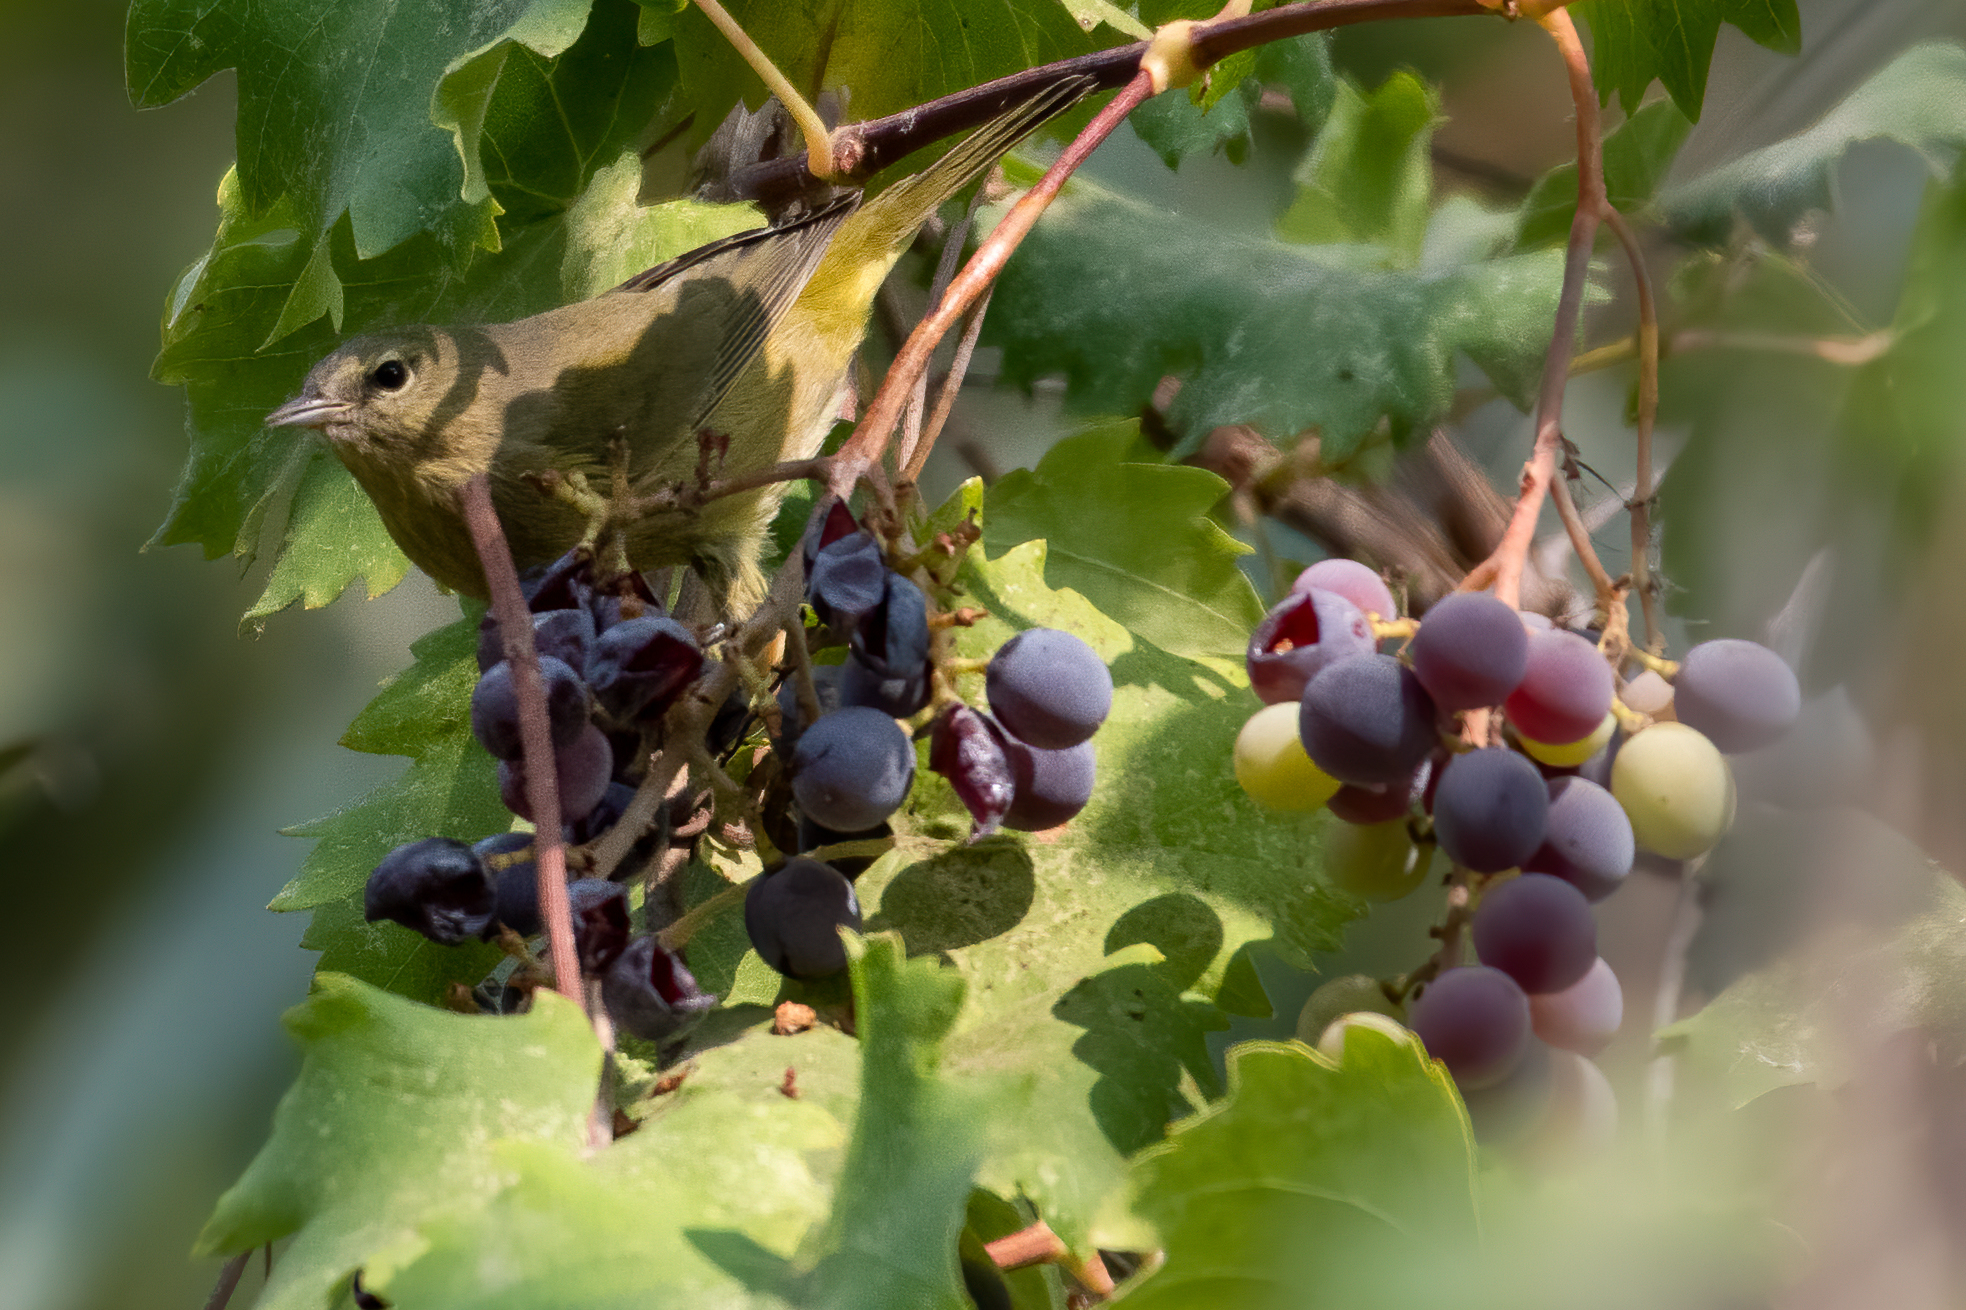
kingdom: Animalia
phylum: Chordata
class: Aves
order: Passeriformes
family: Parulidae
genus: Leiothlypis
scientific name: Leiothlypis celata
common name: Orange-crowned warbler
